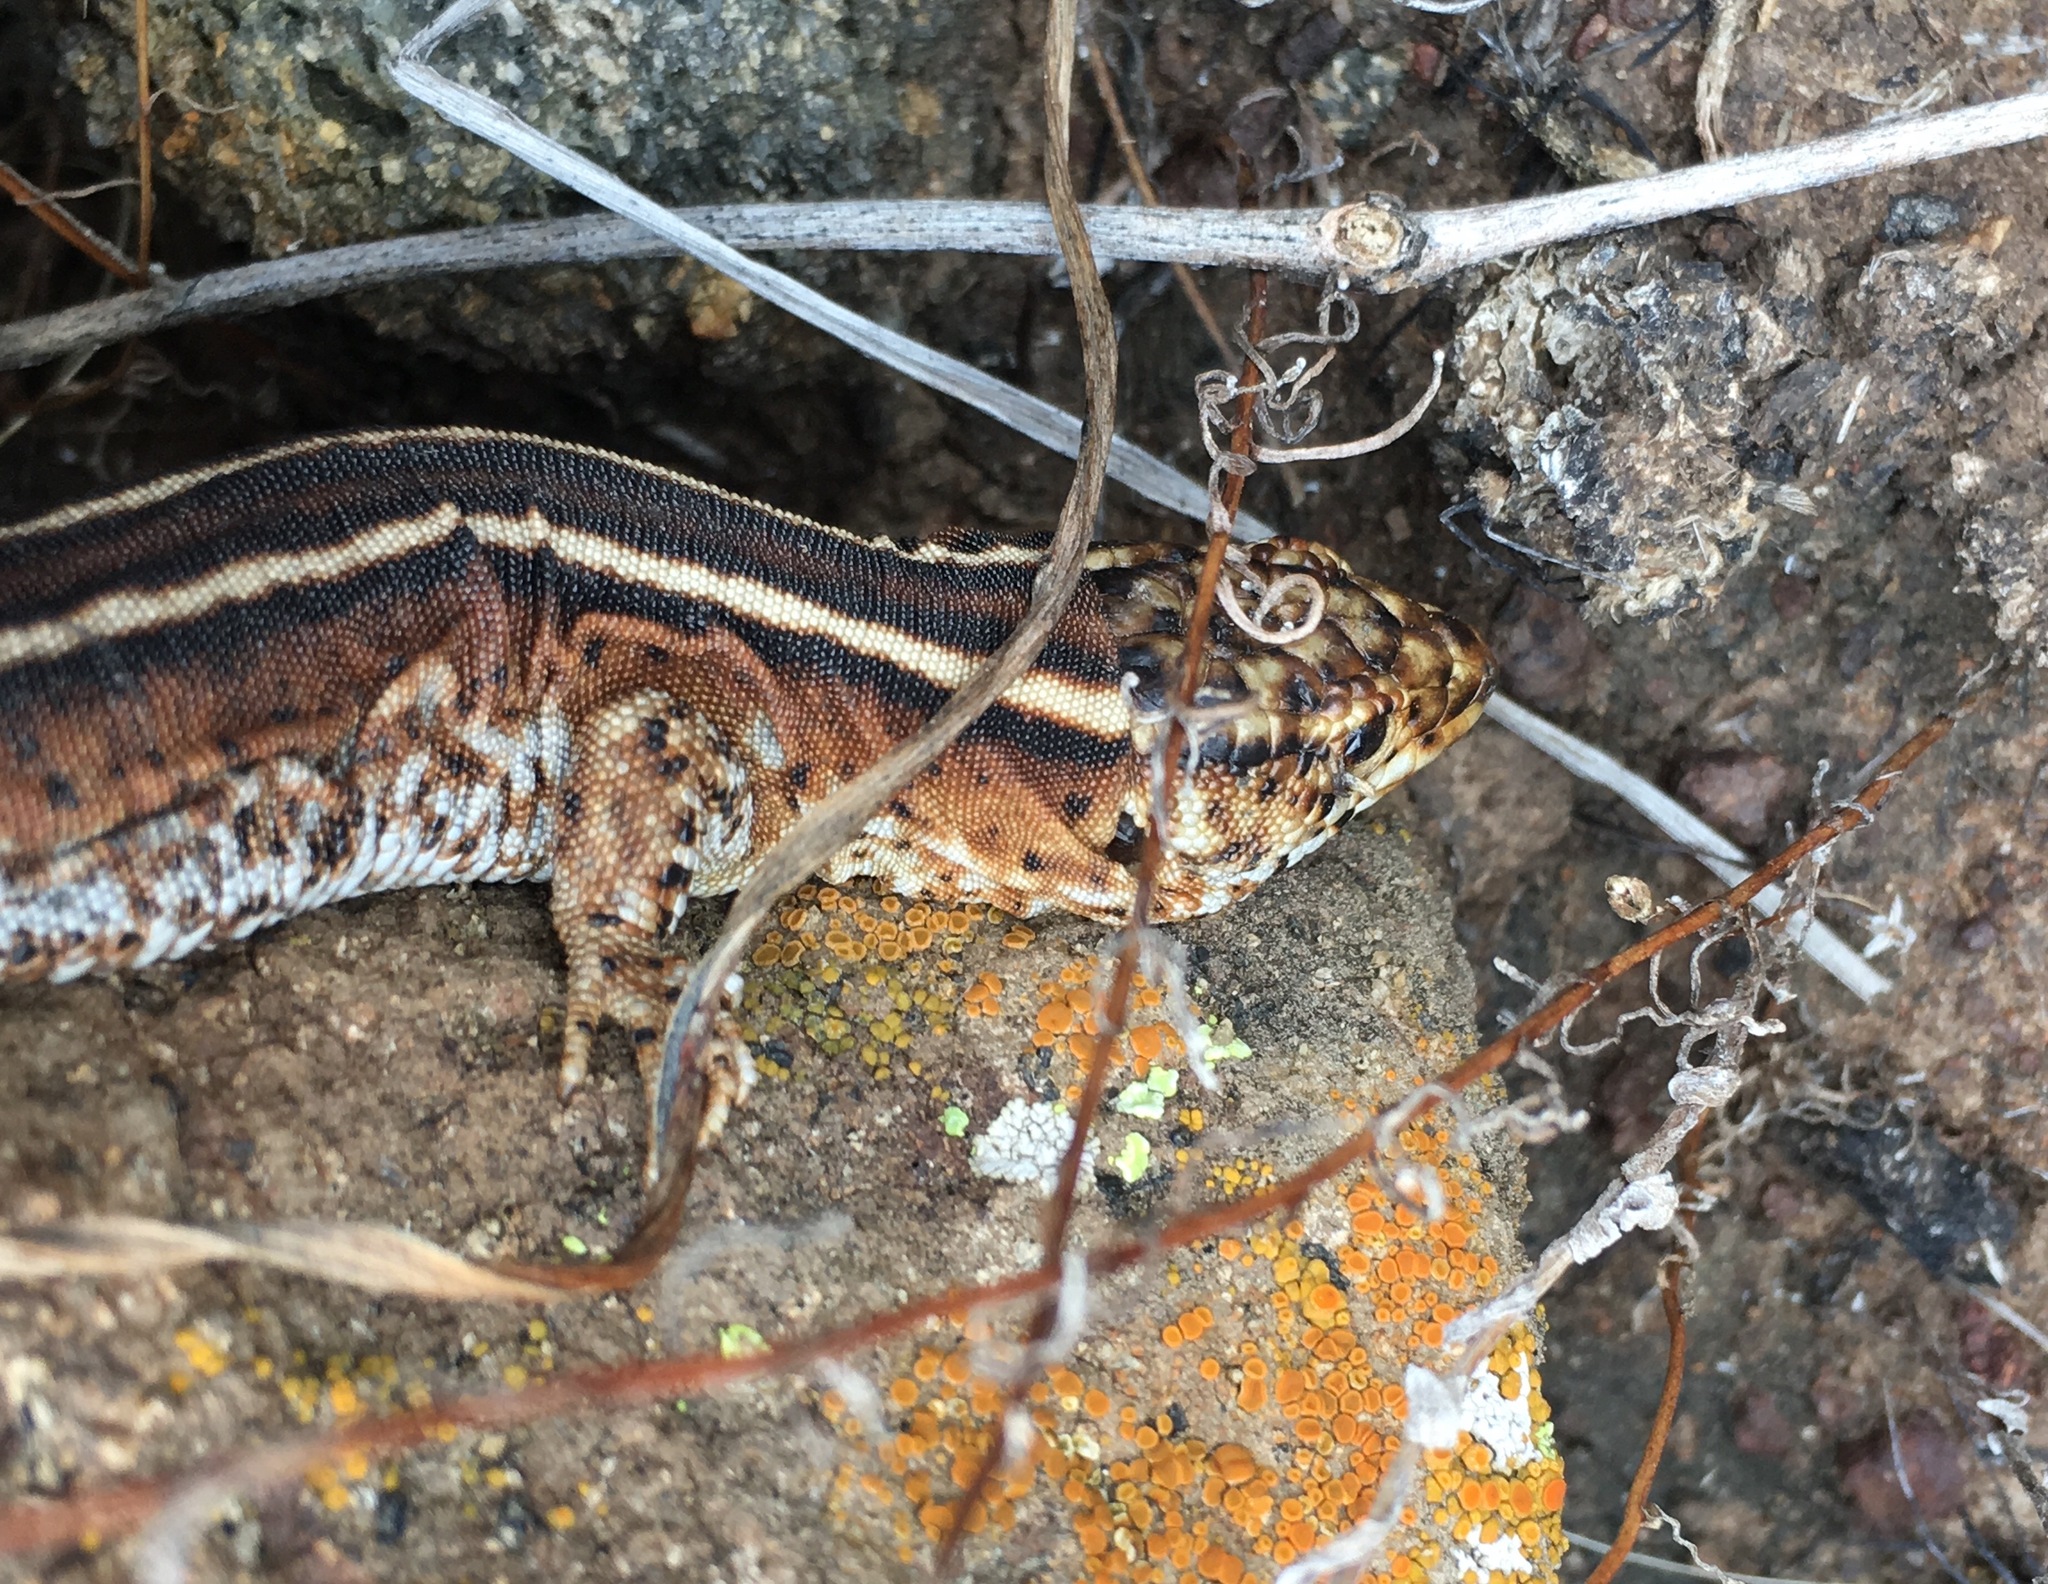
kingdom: Animalia
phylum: Chordata
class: Squamata
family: Xantusiidae
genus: Xantusia
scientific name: Xantusia riversiana
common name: Island night lizard
